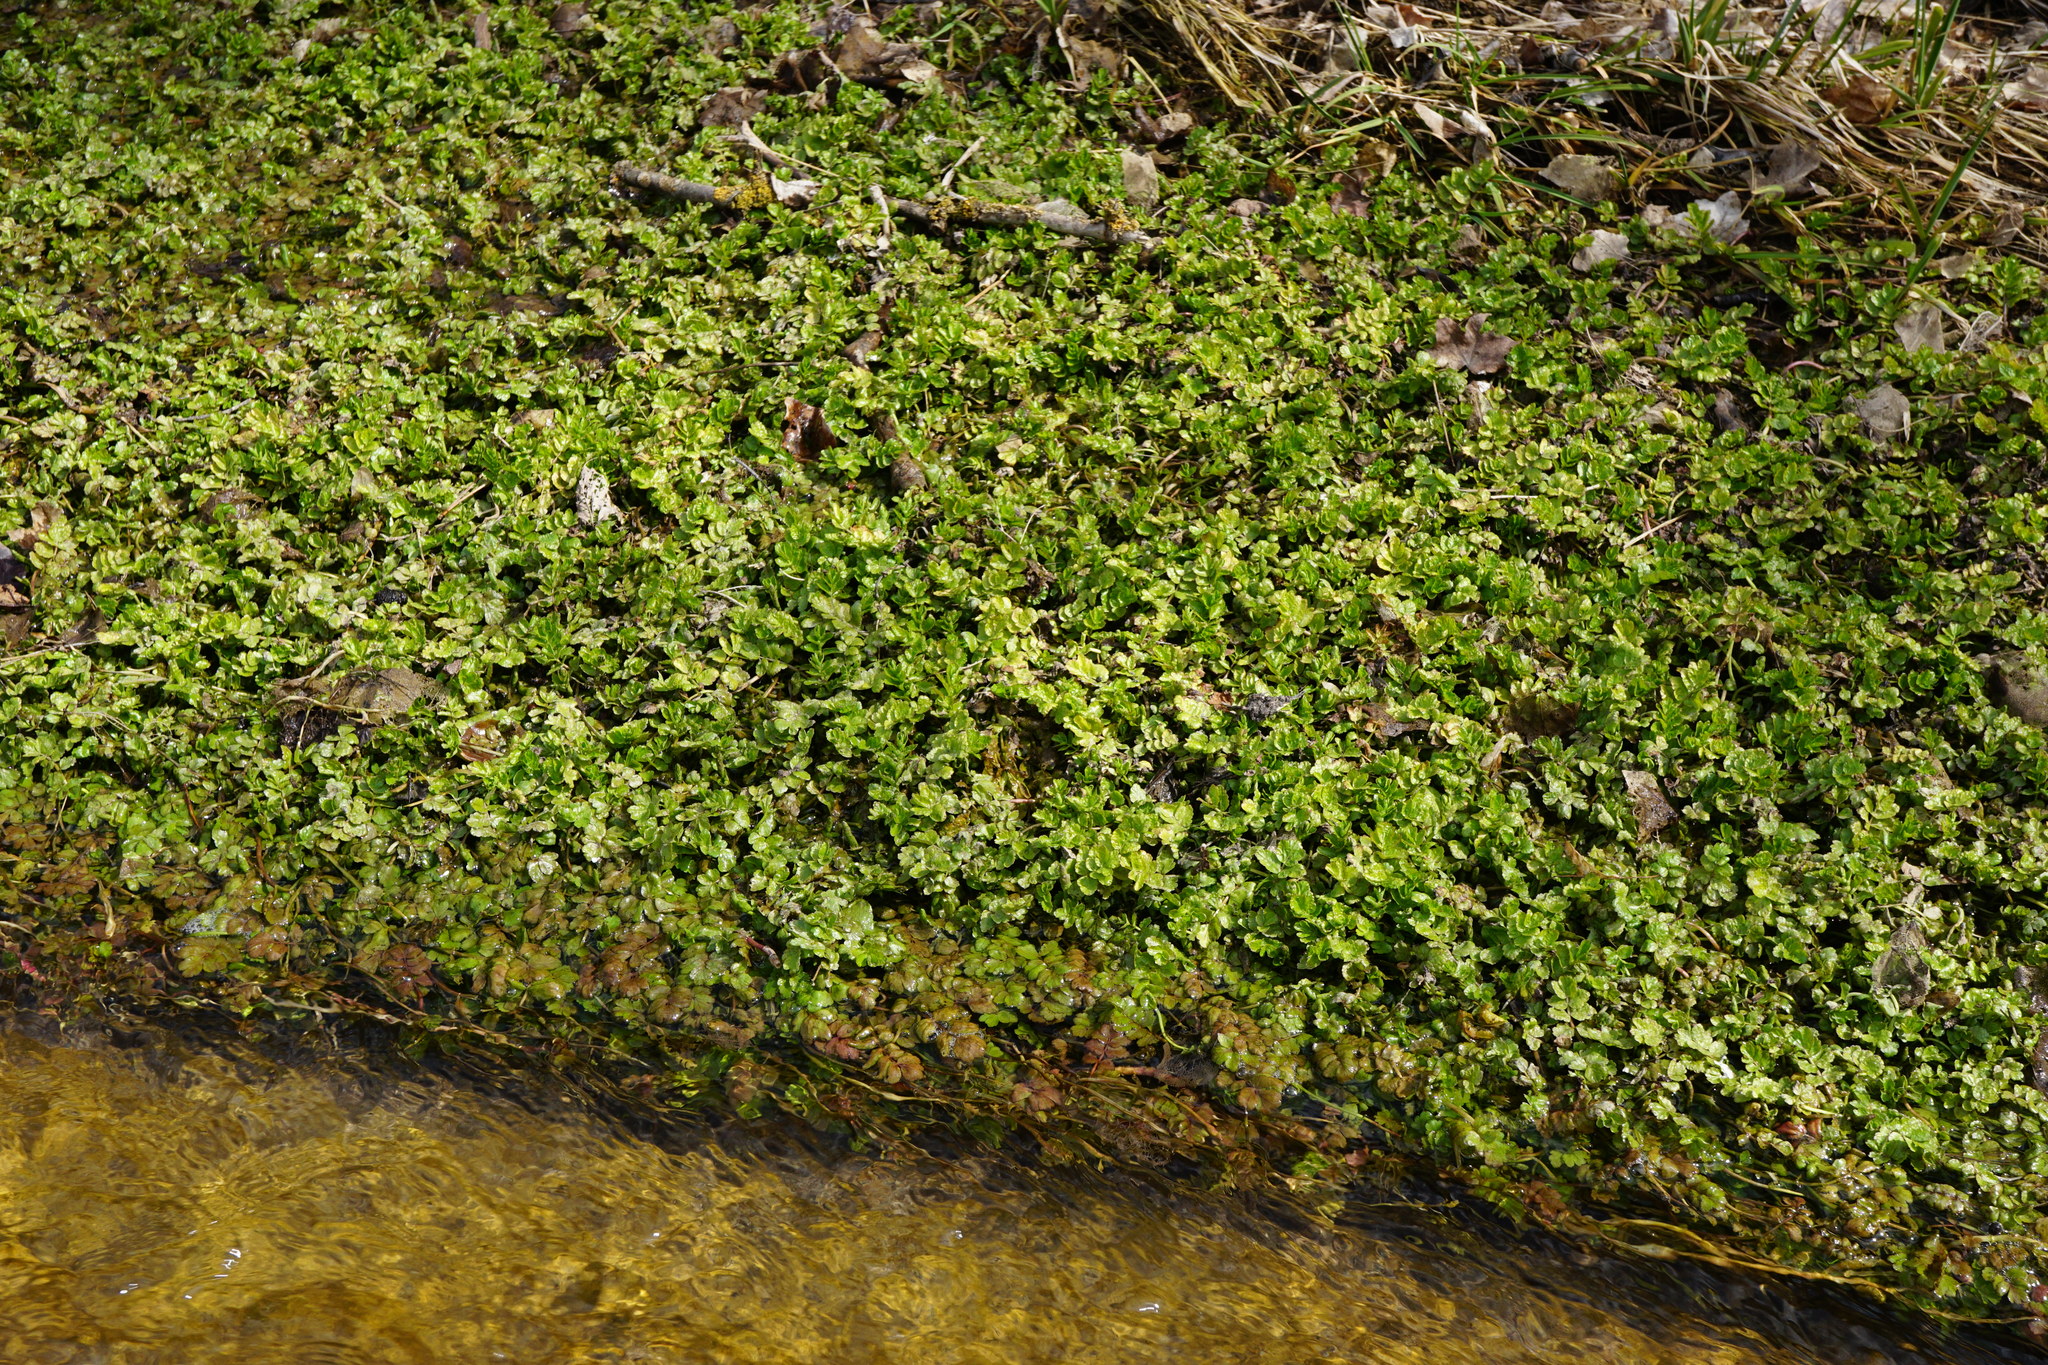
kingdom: Plantae
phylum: Tracheophyta
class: Magnoliopsida
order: Apiales
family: Apiaceae
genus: Berula
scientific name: Berula erecta
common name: Lesser water-parsnip
